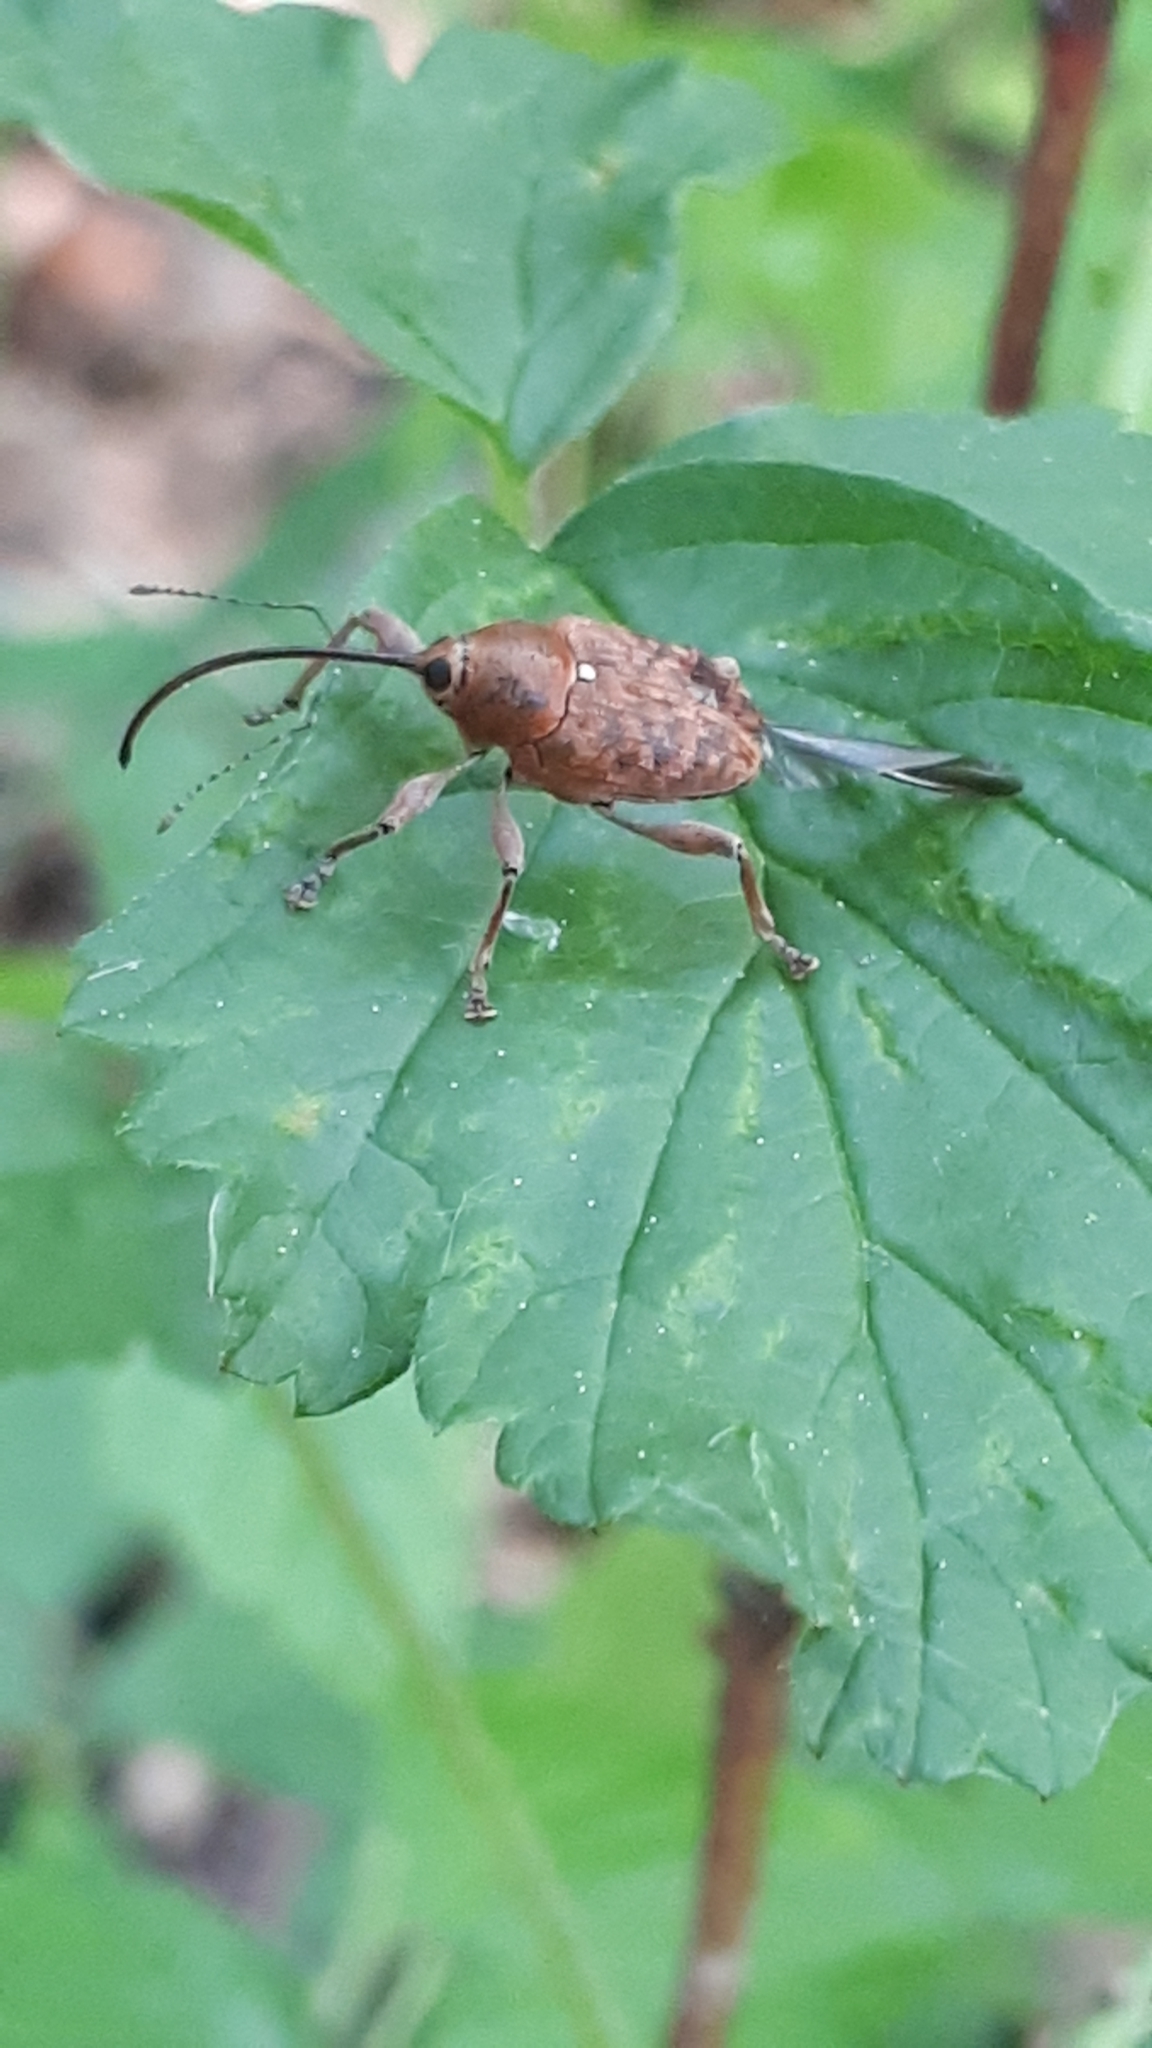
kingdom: Animalia
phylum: Arthropoda
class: Insecta
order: Coleoptera
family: Curculionidae
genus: Curculio
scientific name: Curculio glandium
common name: Acorn weevil
